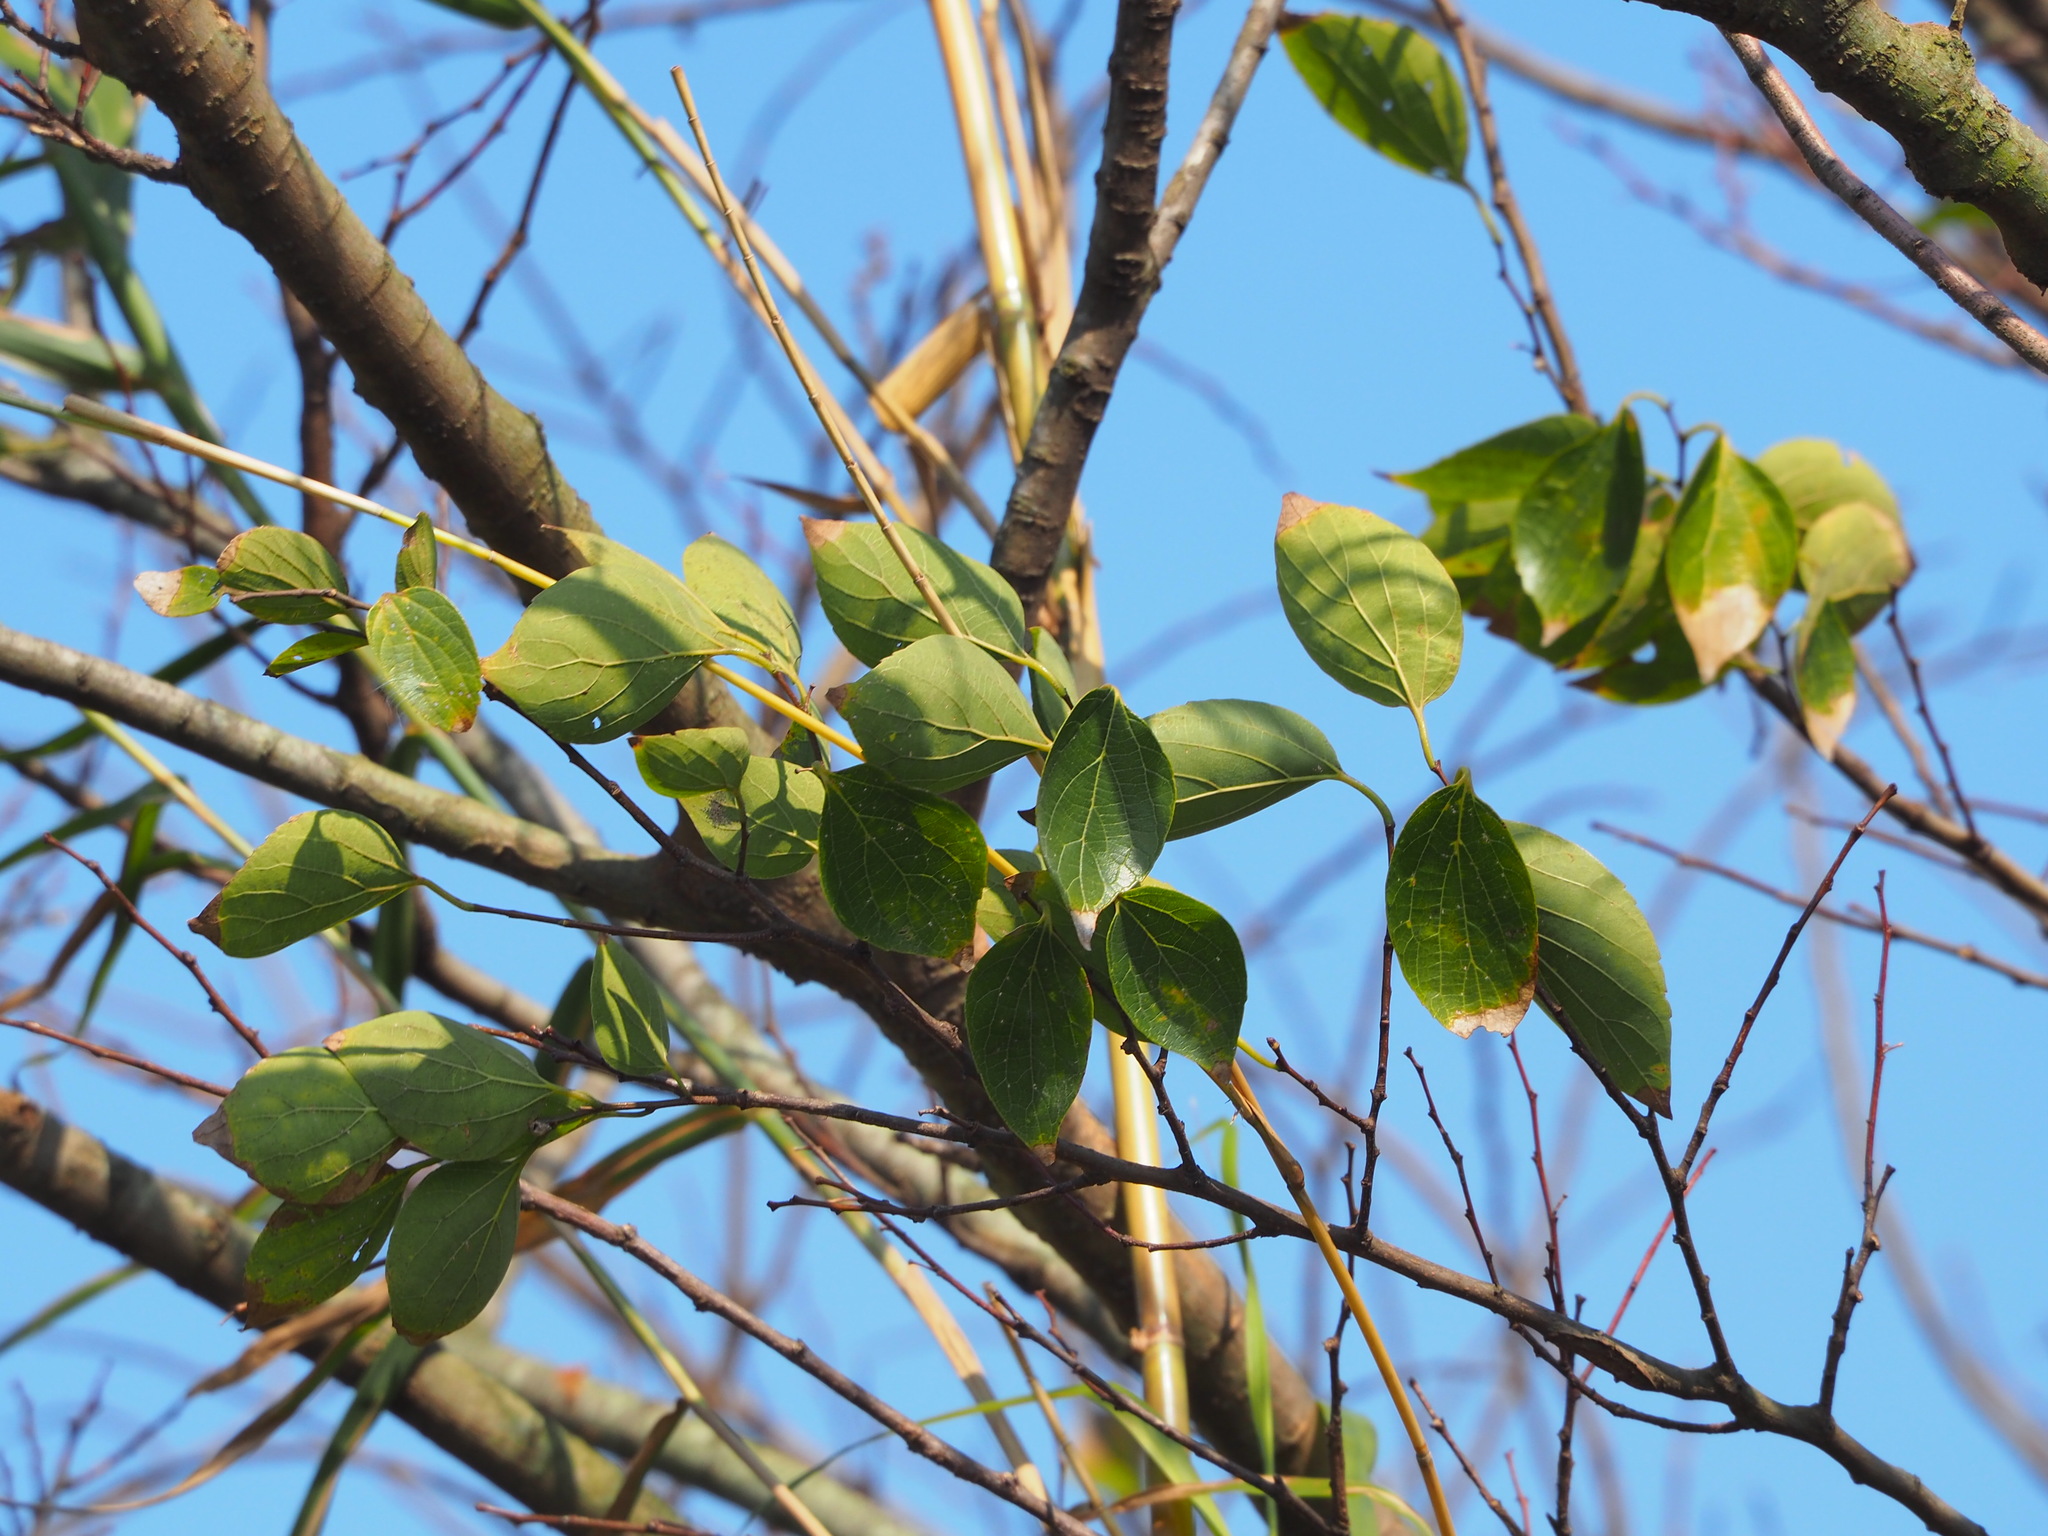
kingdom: Plantae
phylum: Tracheophyta
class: Magnoliopsida
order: Rosales
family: Cannabaceae
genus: Celtis
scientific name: Celtis sinensis
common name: Chinese hackberry
